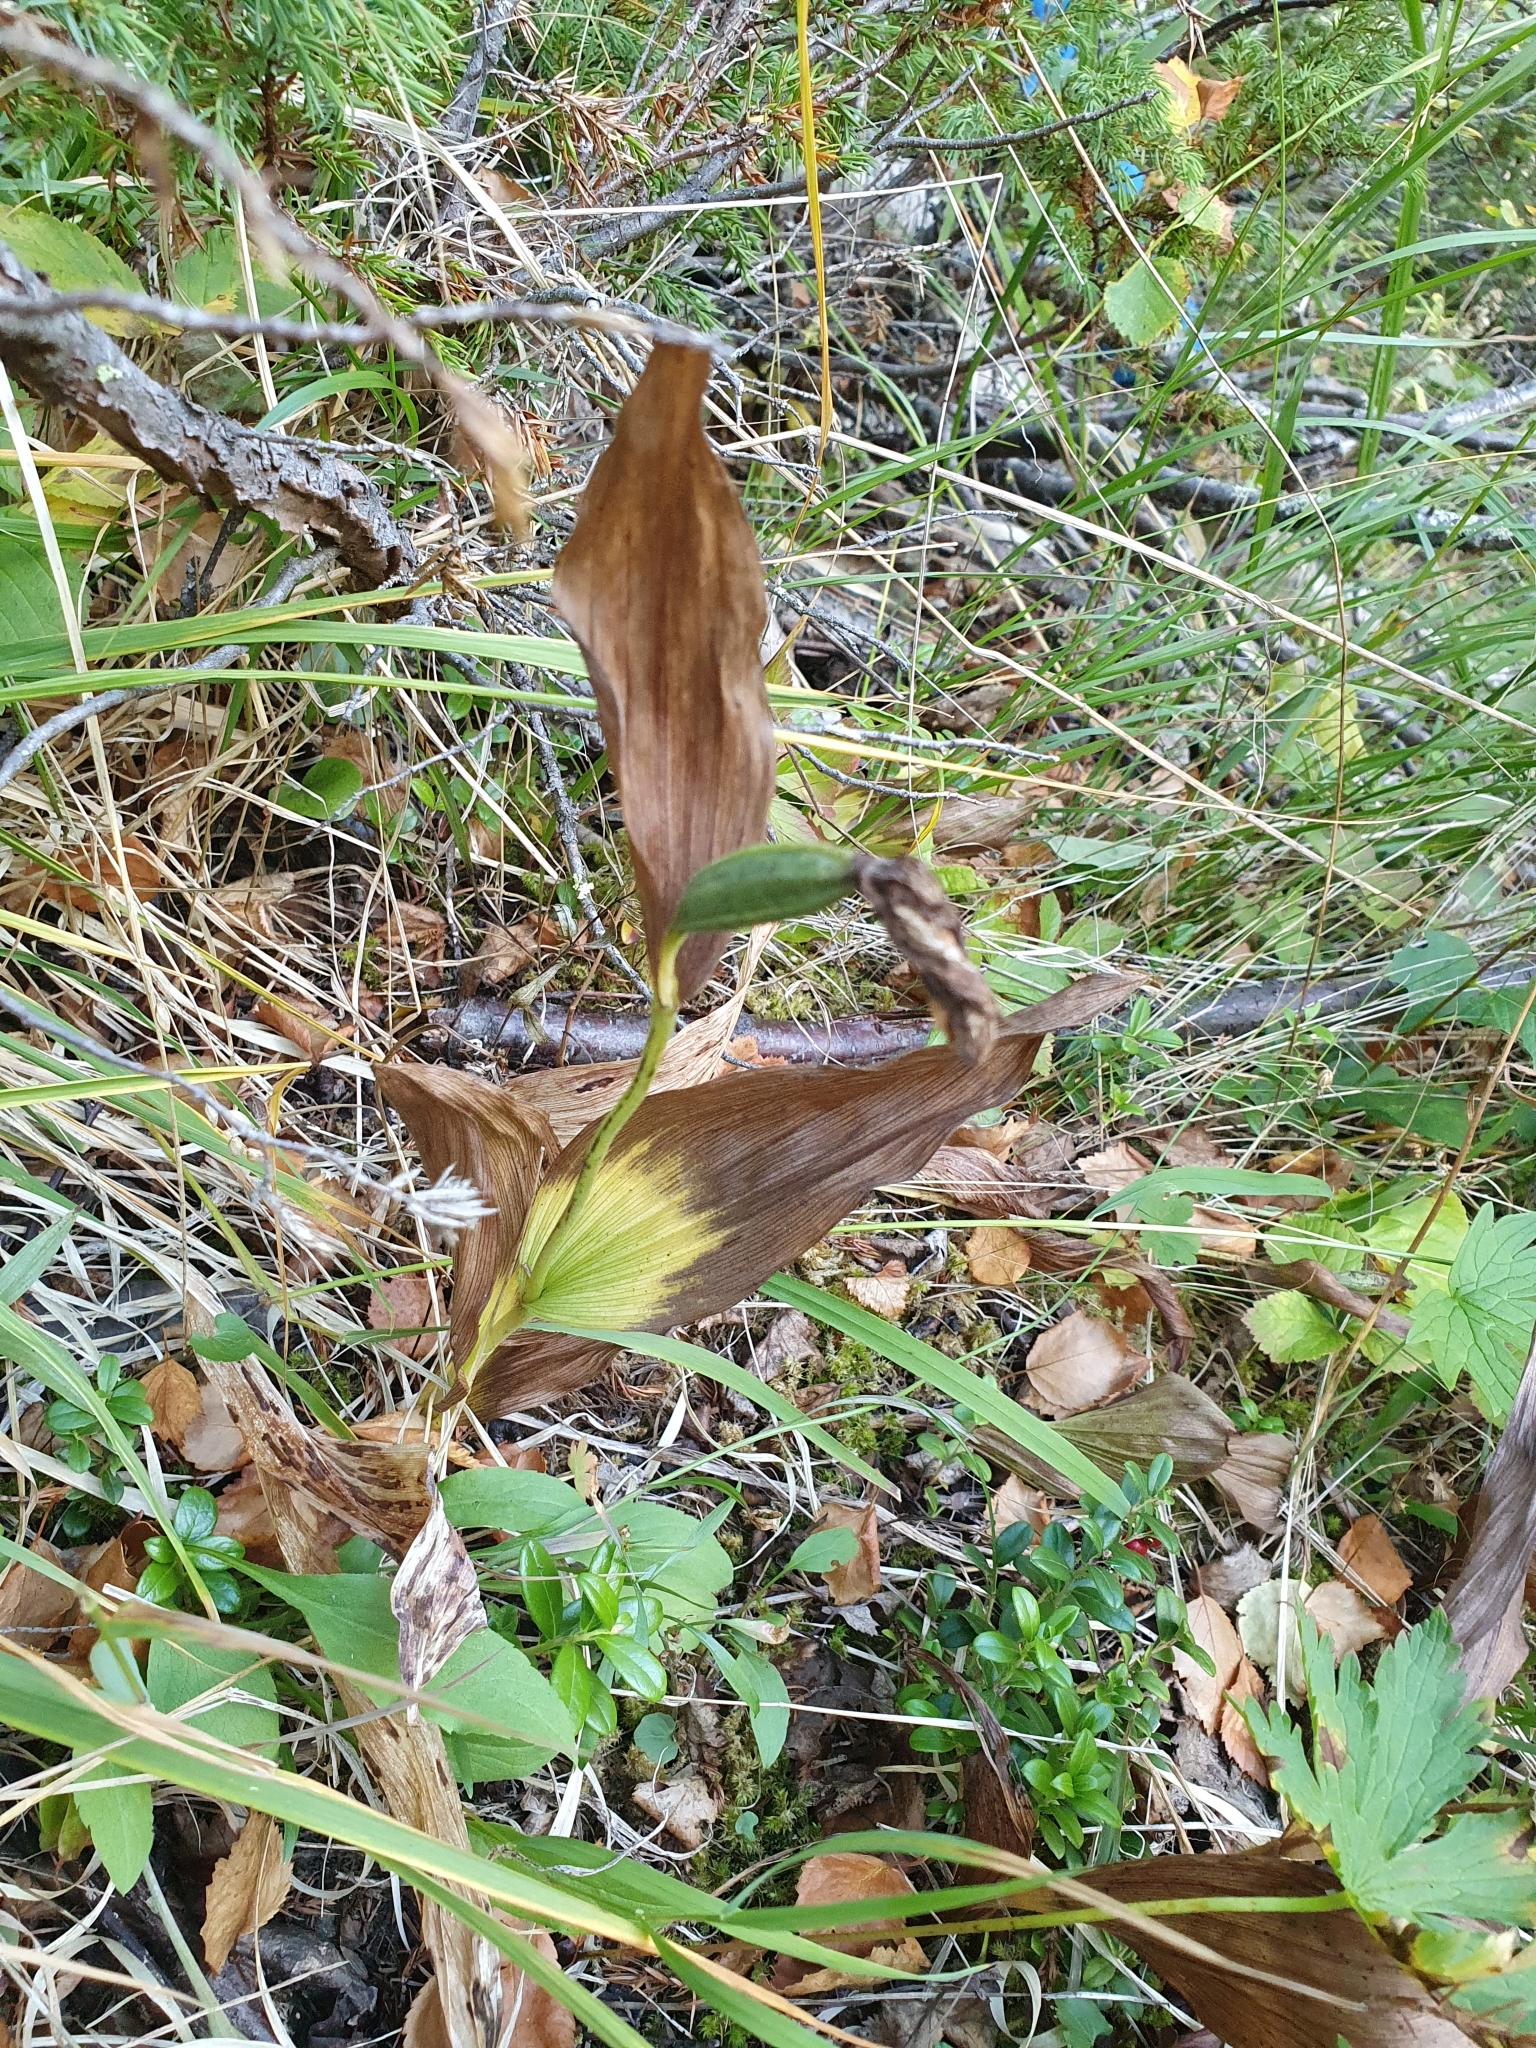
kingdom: Plantae
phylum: Tracheophyta
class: Liliopsida
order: Asparagales
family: Orchidaceae
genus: Cypripedium
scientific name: Cypripedium calceolus
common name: Lady's-slipper
